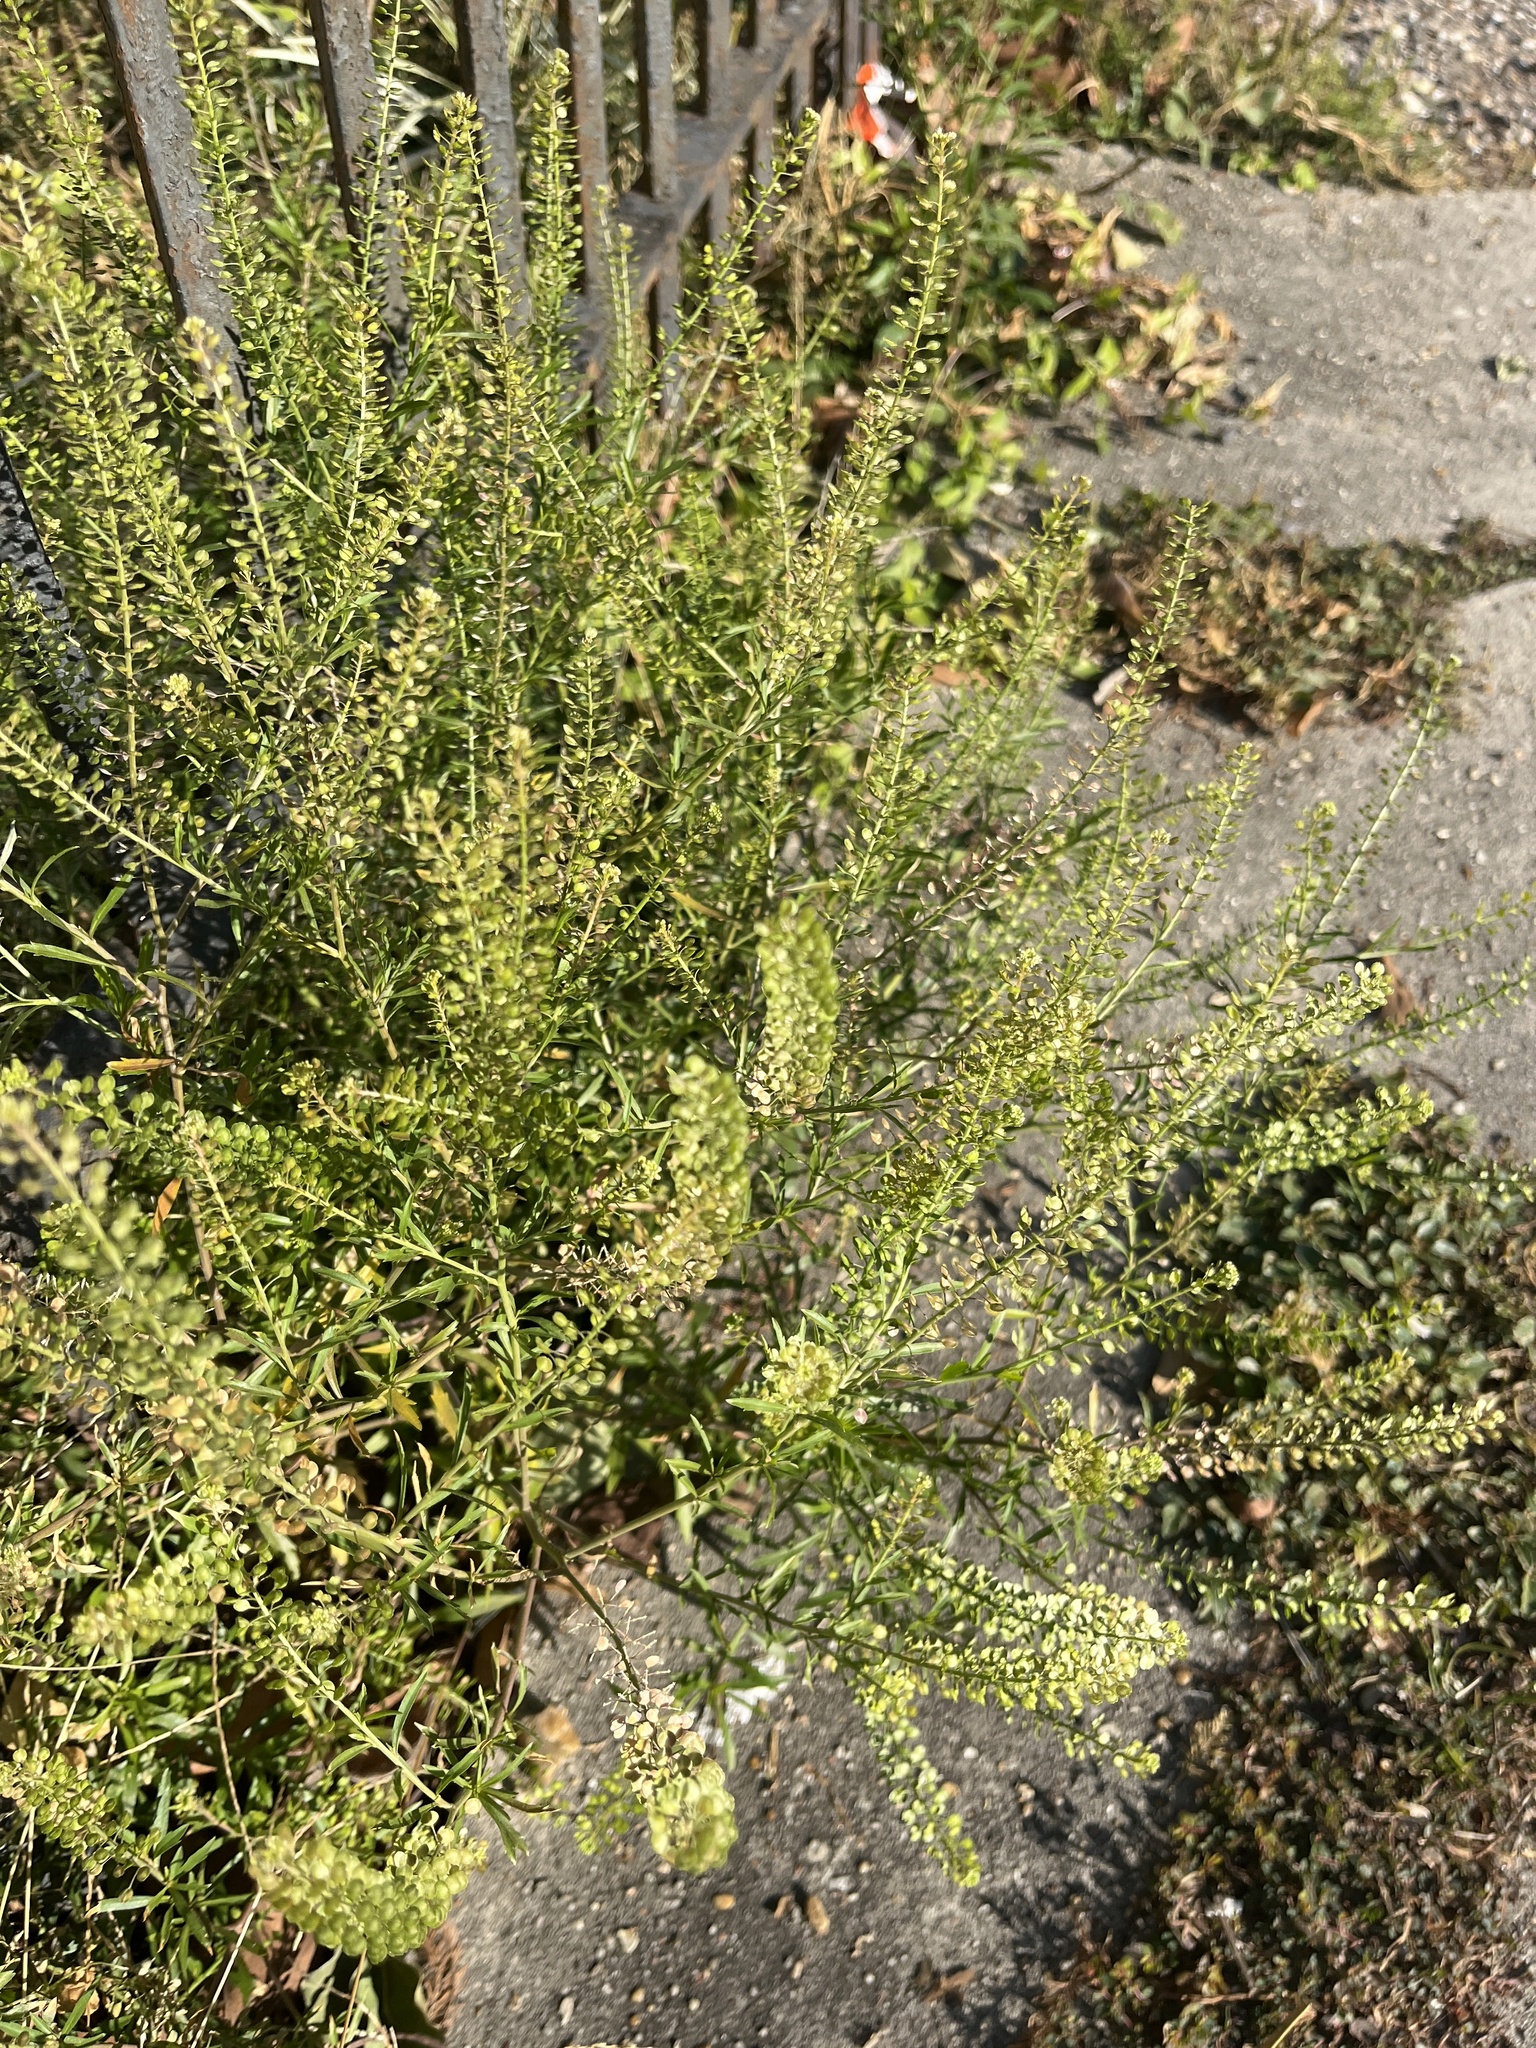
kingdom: Plantae
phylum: Tracheophyta
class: Magnoliopsida
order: Brassicales
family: Brassicaceae
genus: Lepidium
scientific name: Lepidium virginicum
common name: Least pepperwort
